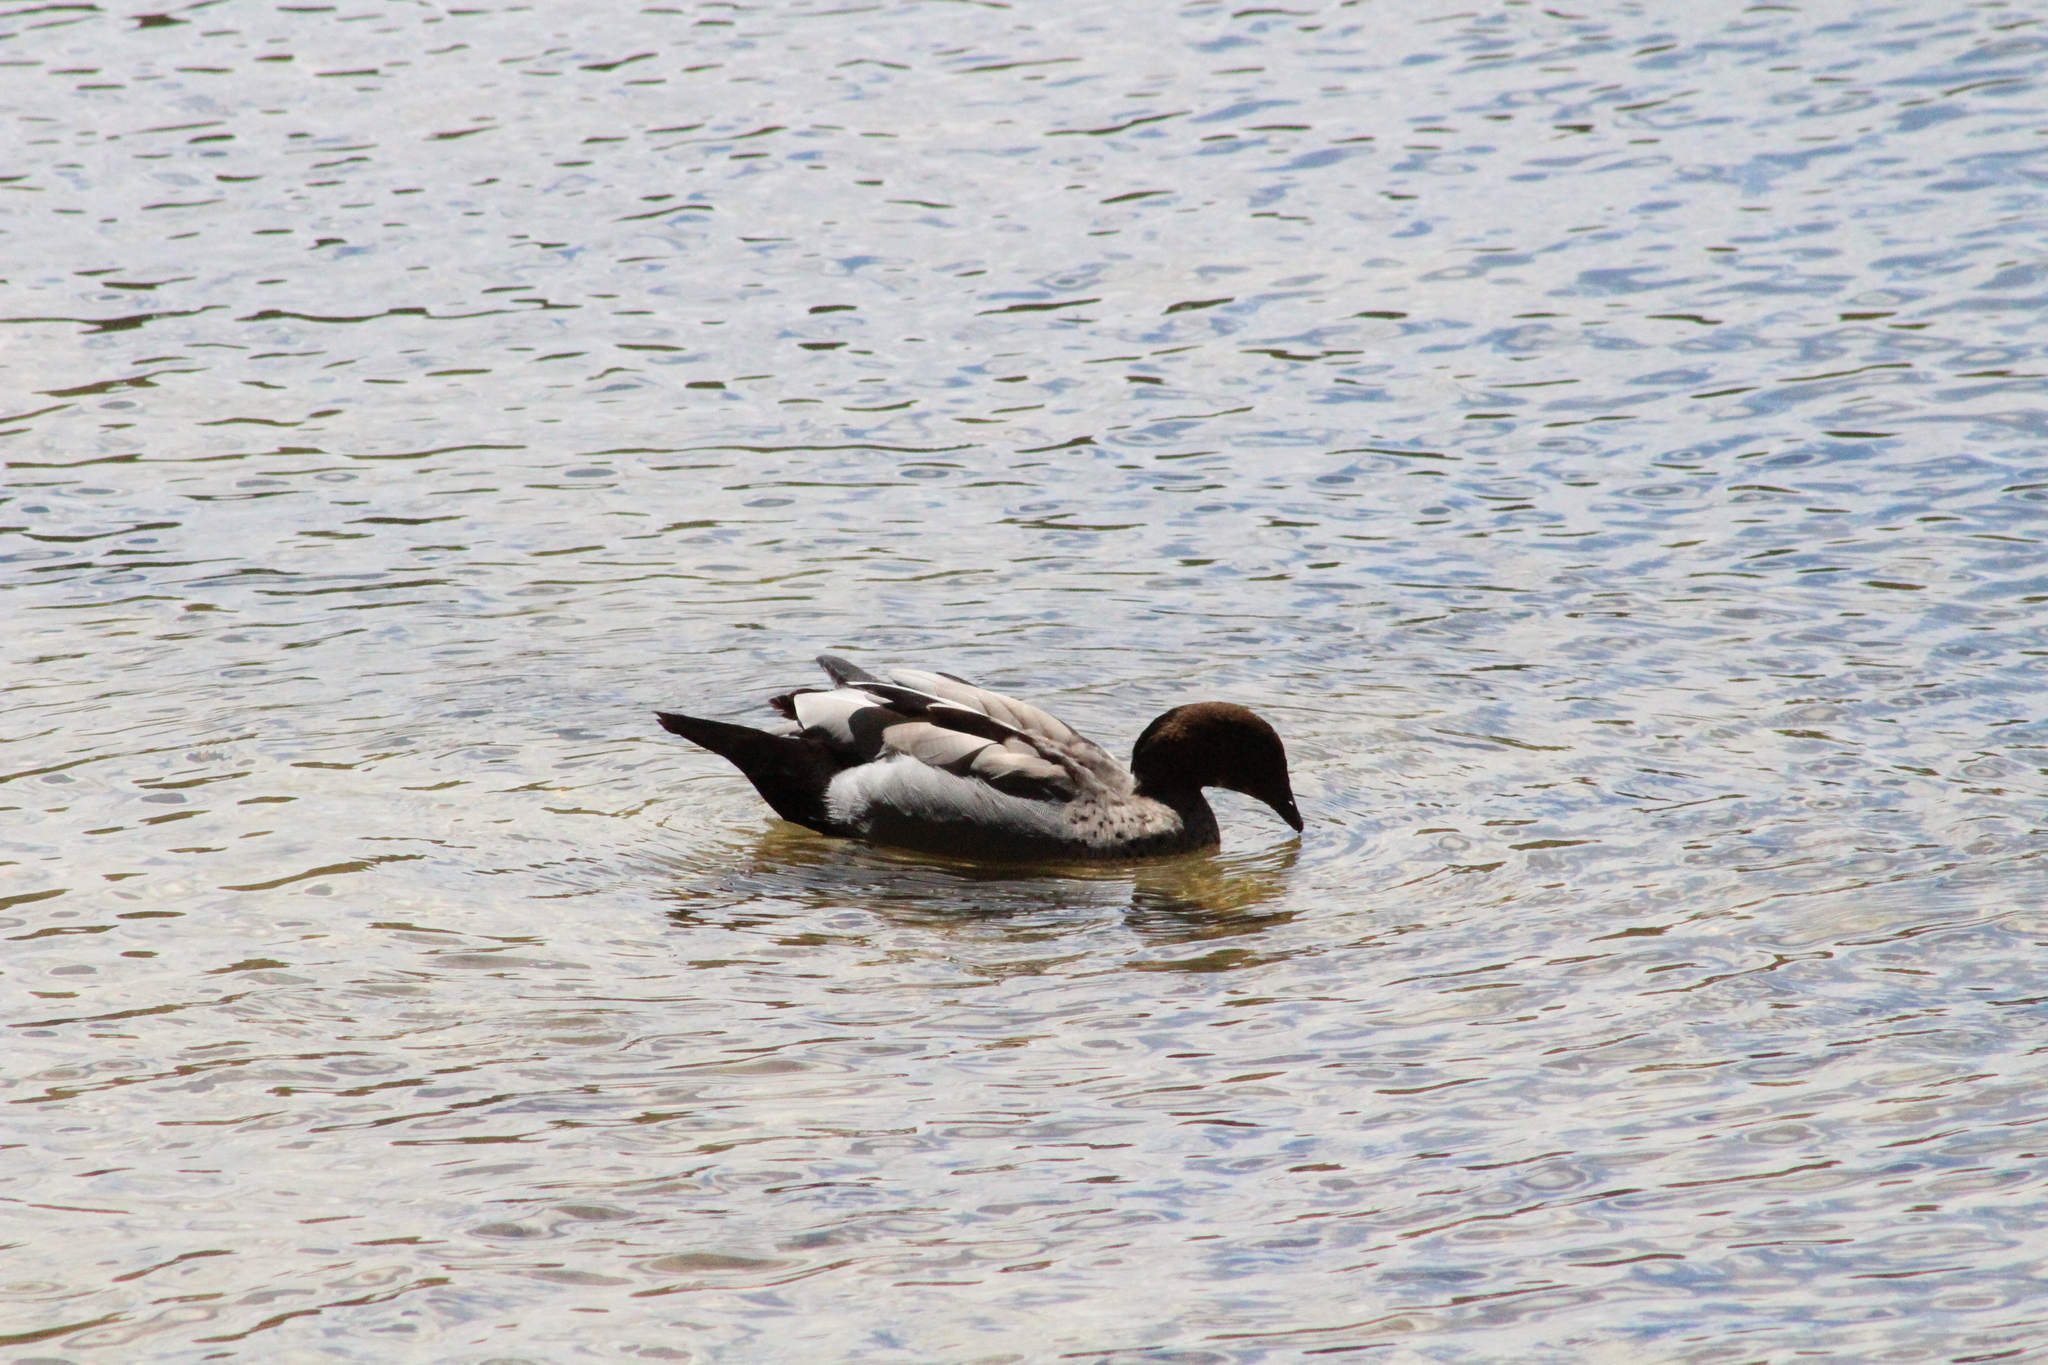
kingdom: Animalia
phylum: Chordata
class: Aves
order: Anseriformes
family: Anatidae
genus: Chenonetta
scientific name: Chenonetta jubata
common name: Maned duck
